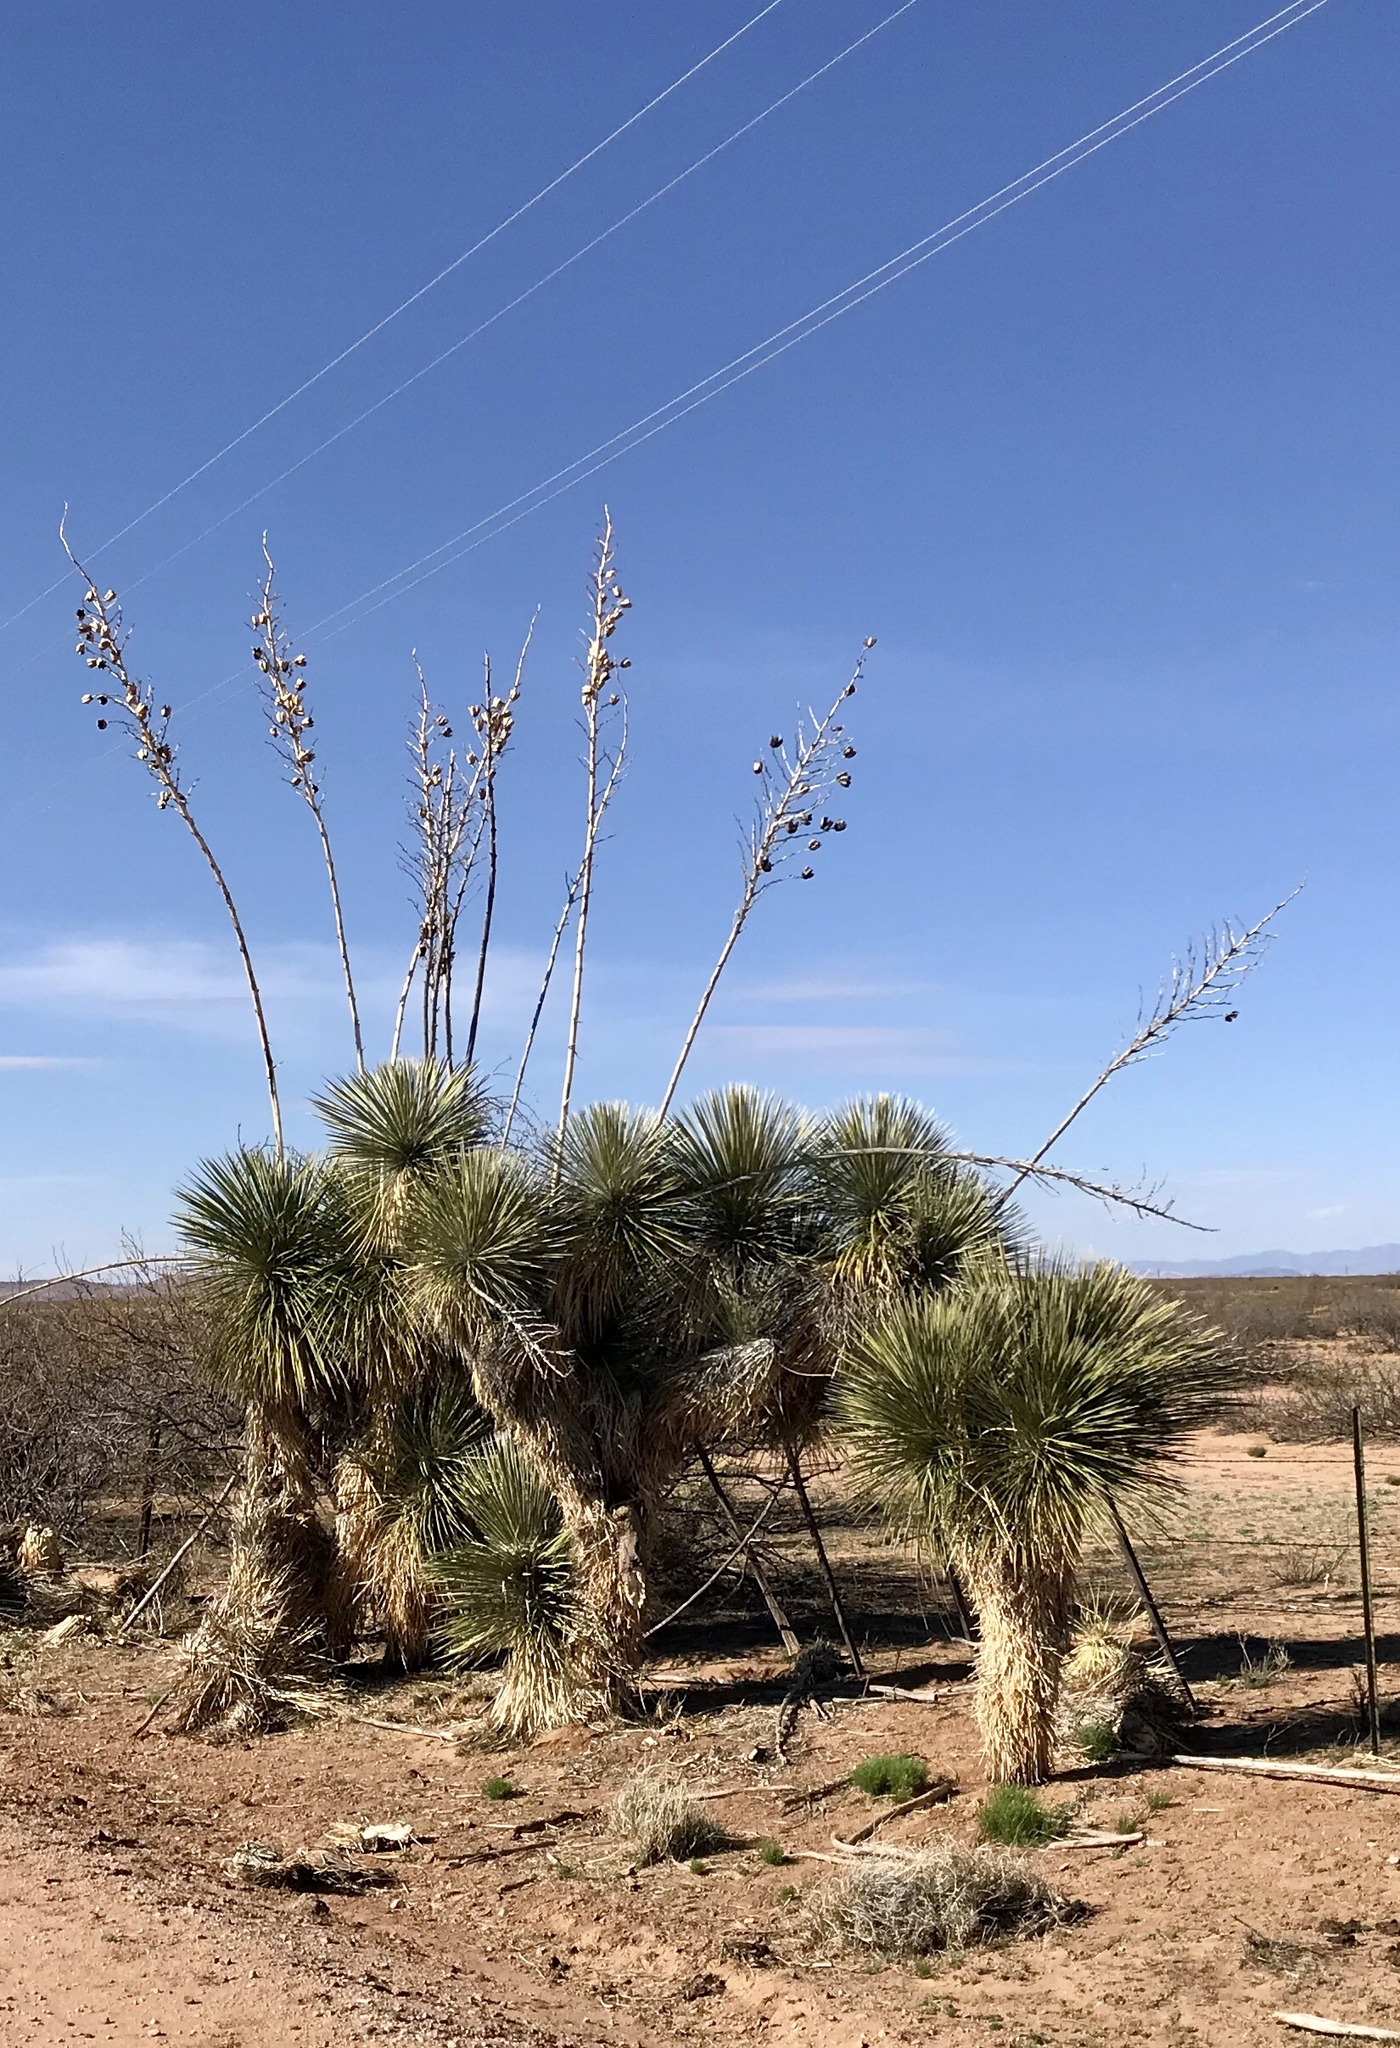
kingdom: Plantae
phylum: Tracheophyta
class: Liliopsida
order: Asparagales
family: Asparagaceae
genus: Yucca
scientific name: Yucca elata
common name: Palmella
